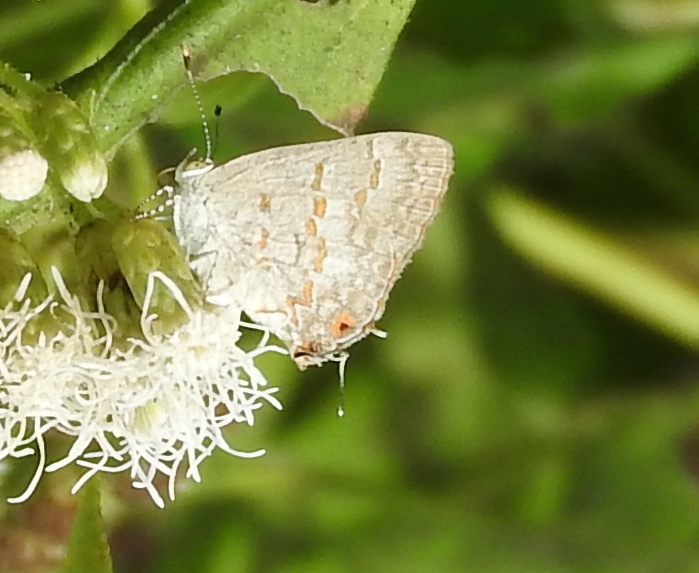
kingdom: Animalia
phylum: Arthropoda
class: Insecta
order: Lepidoptera
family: Lycaenidae
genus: Ministrymon
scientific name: Ministrymon clytie
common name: Clytie ministreak
